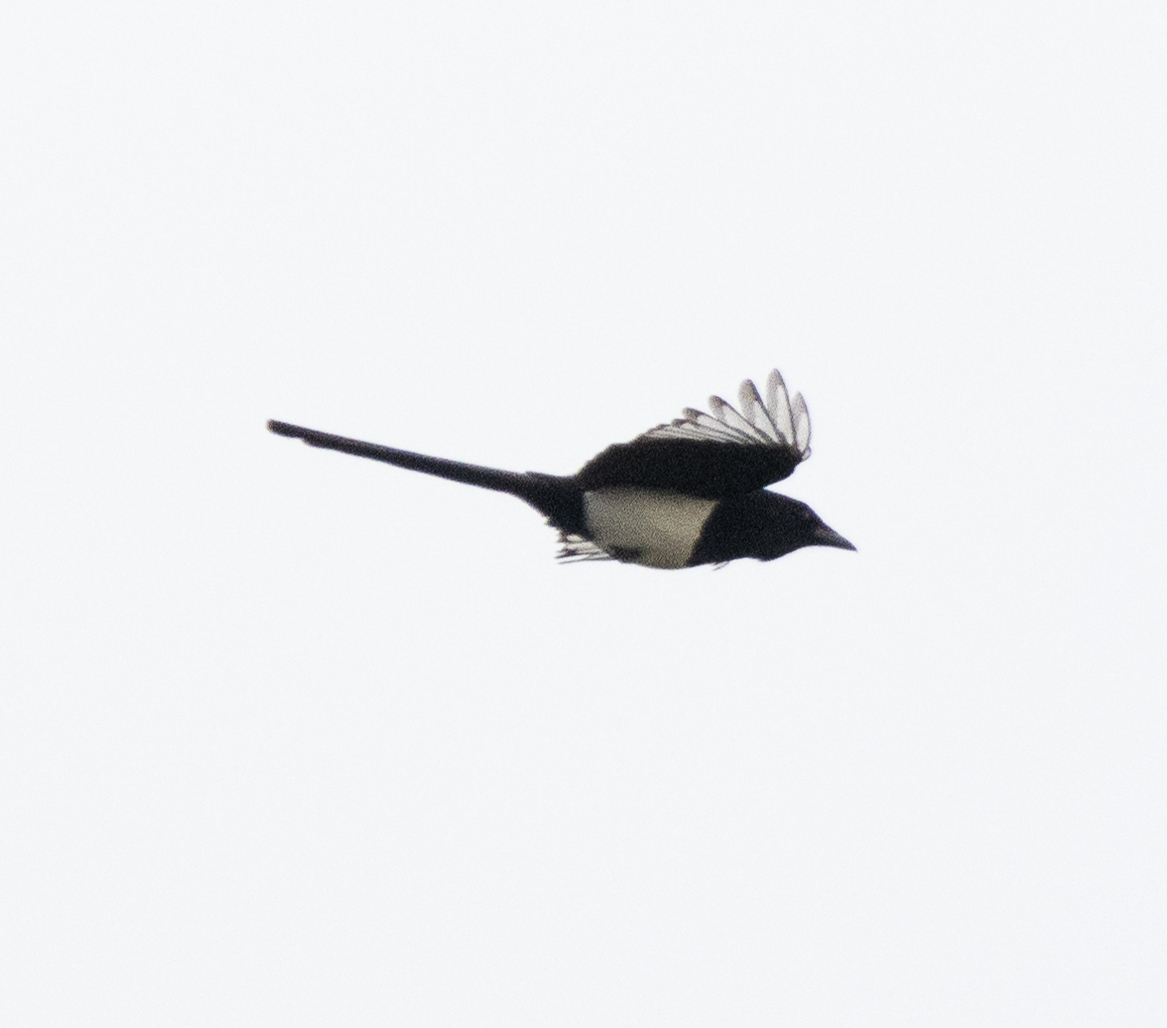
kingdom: Animalia
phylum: Chordata
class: Aves
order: Passeriformes
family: Corvidae
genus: Pica
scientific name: Pica pica
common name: Eurasian magpie
